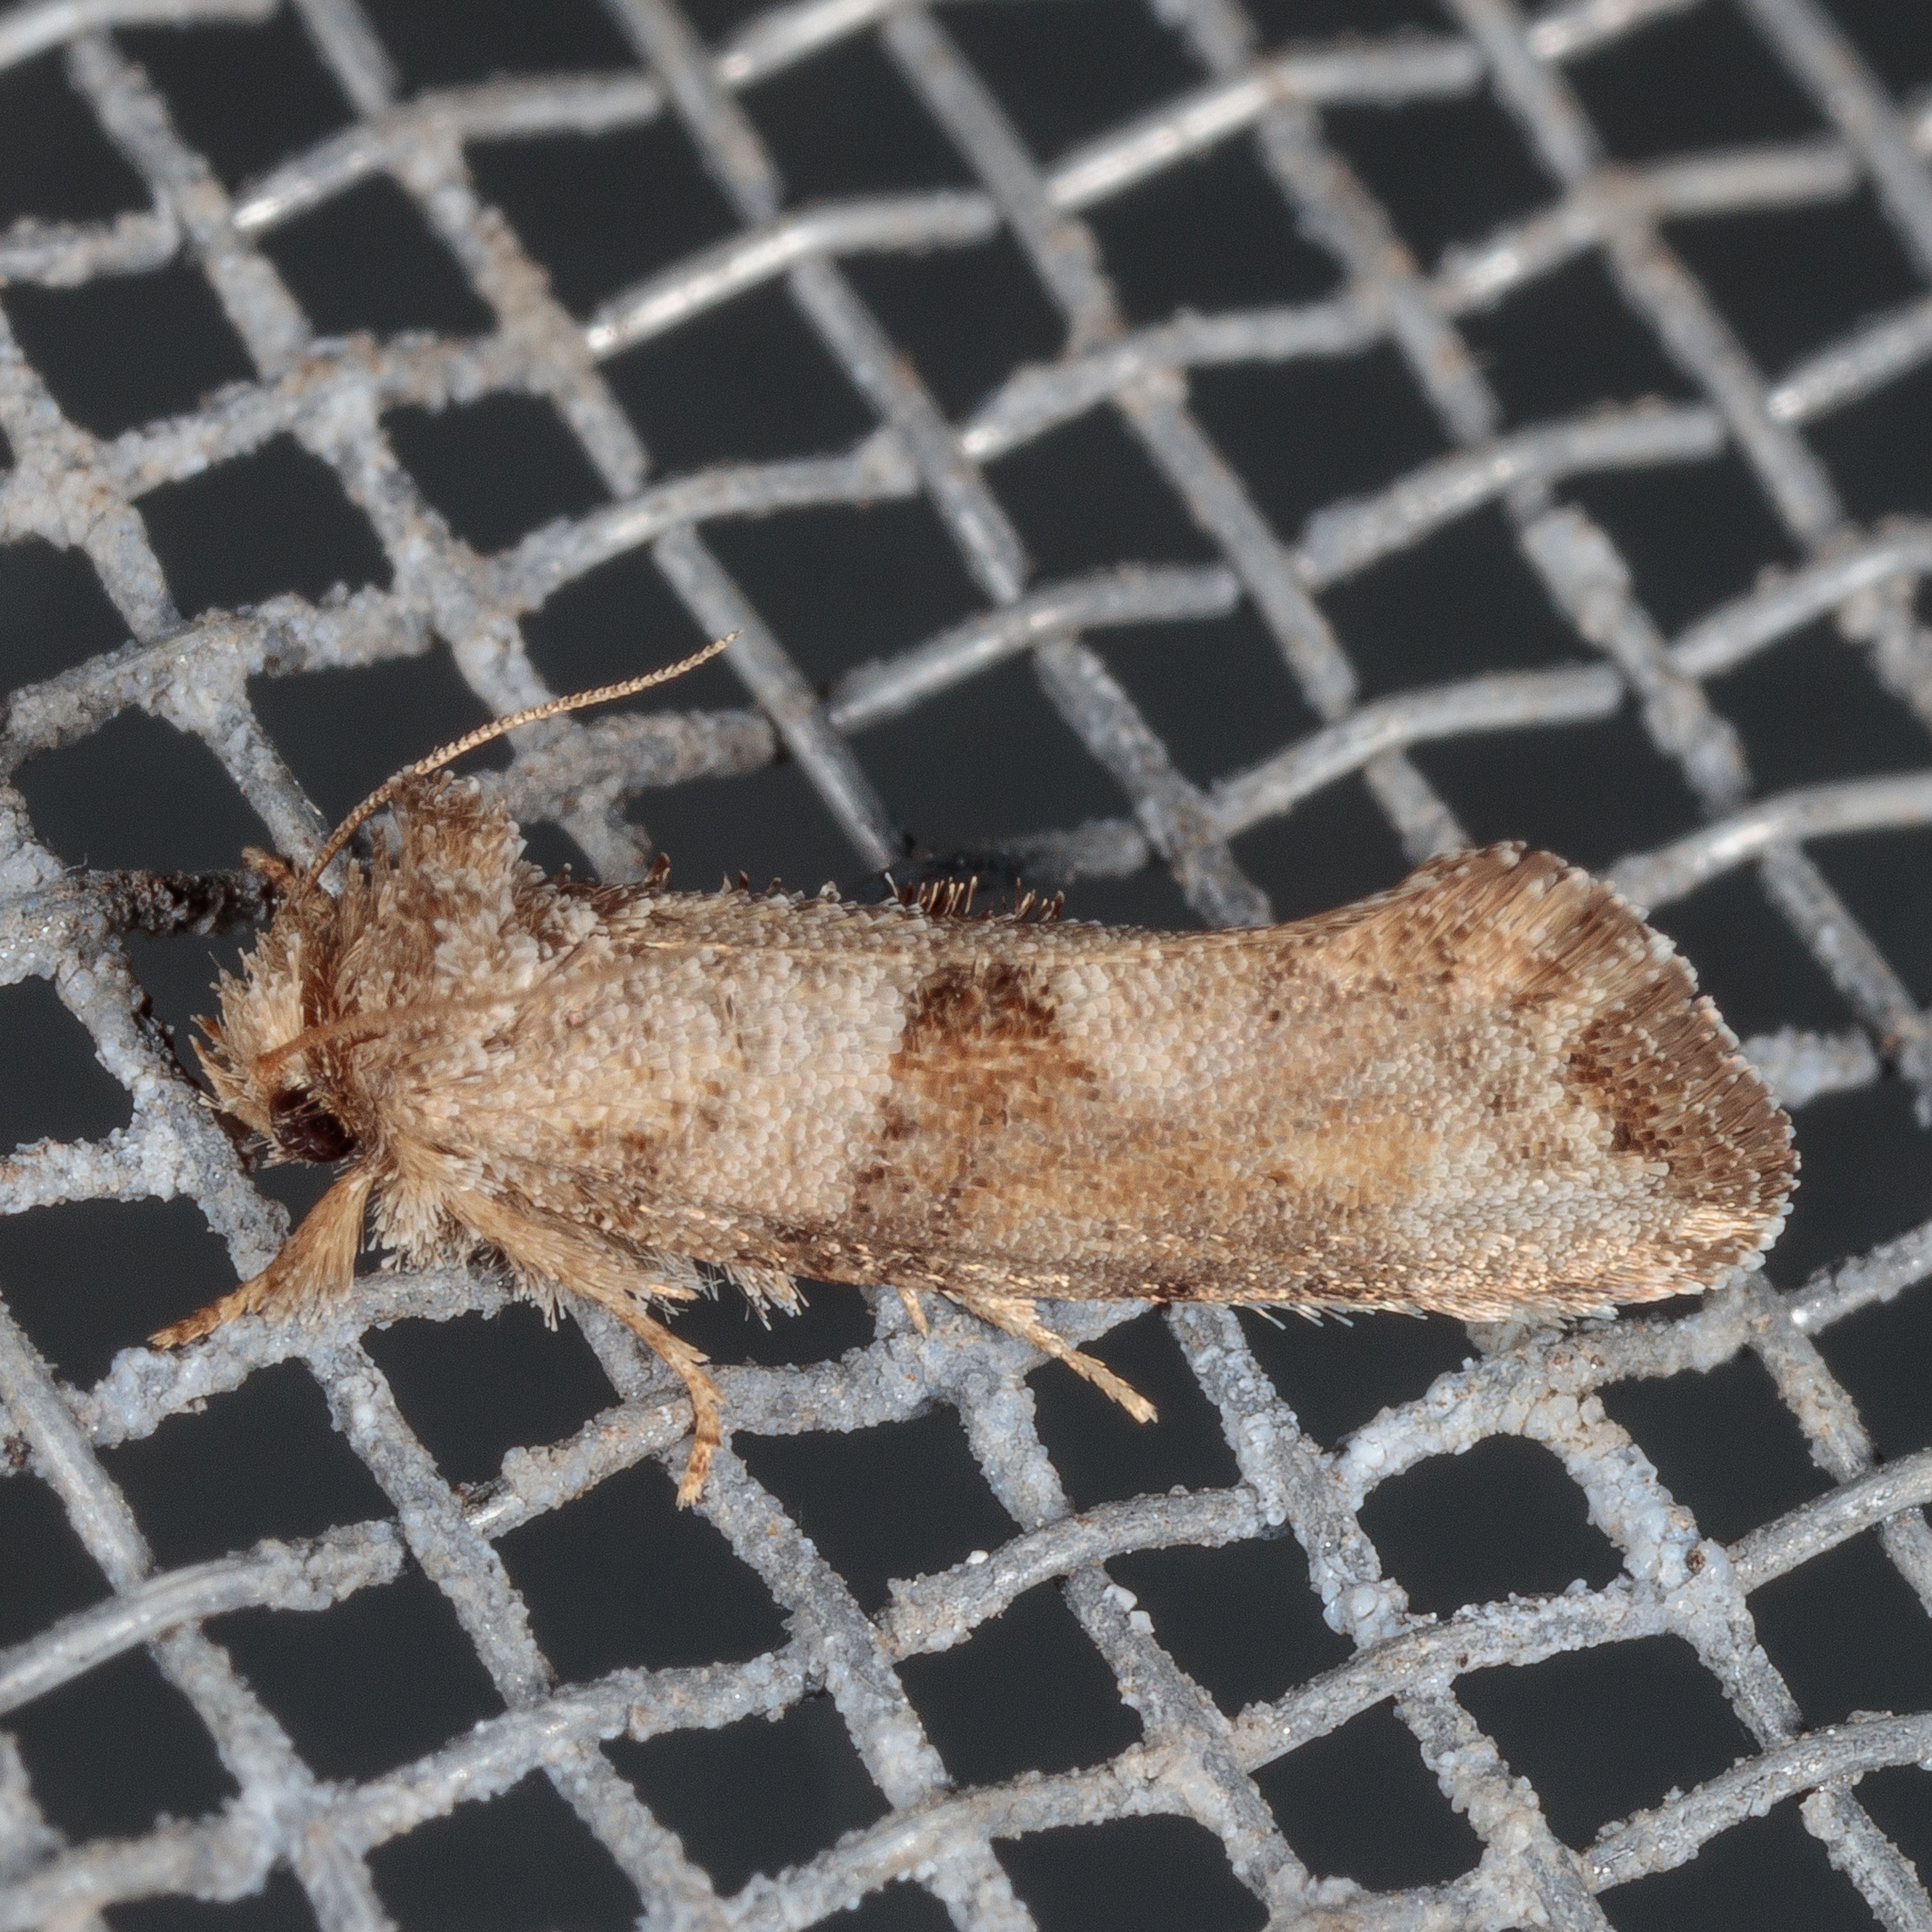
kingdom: Animalia
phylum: Arthropoda
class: Insecta
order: Lepidoptera
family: Tineidae
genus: Acrolophus
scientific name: Acrolophus piger
